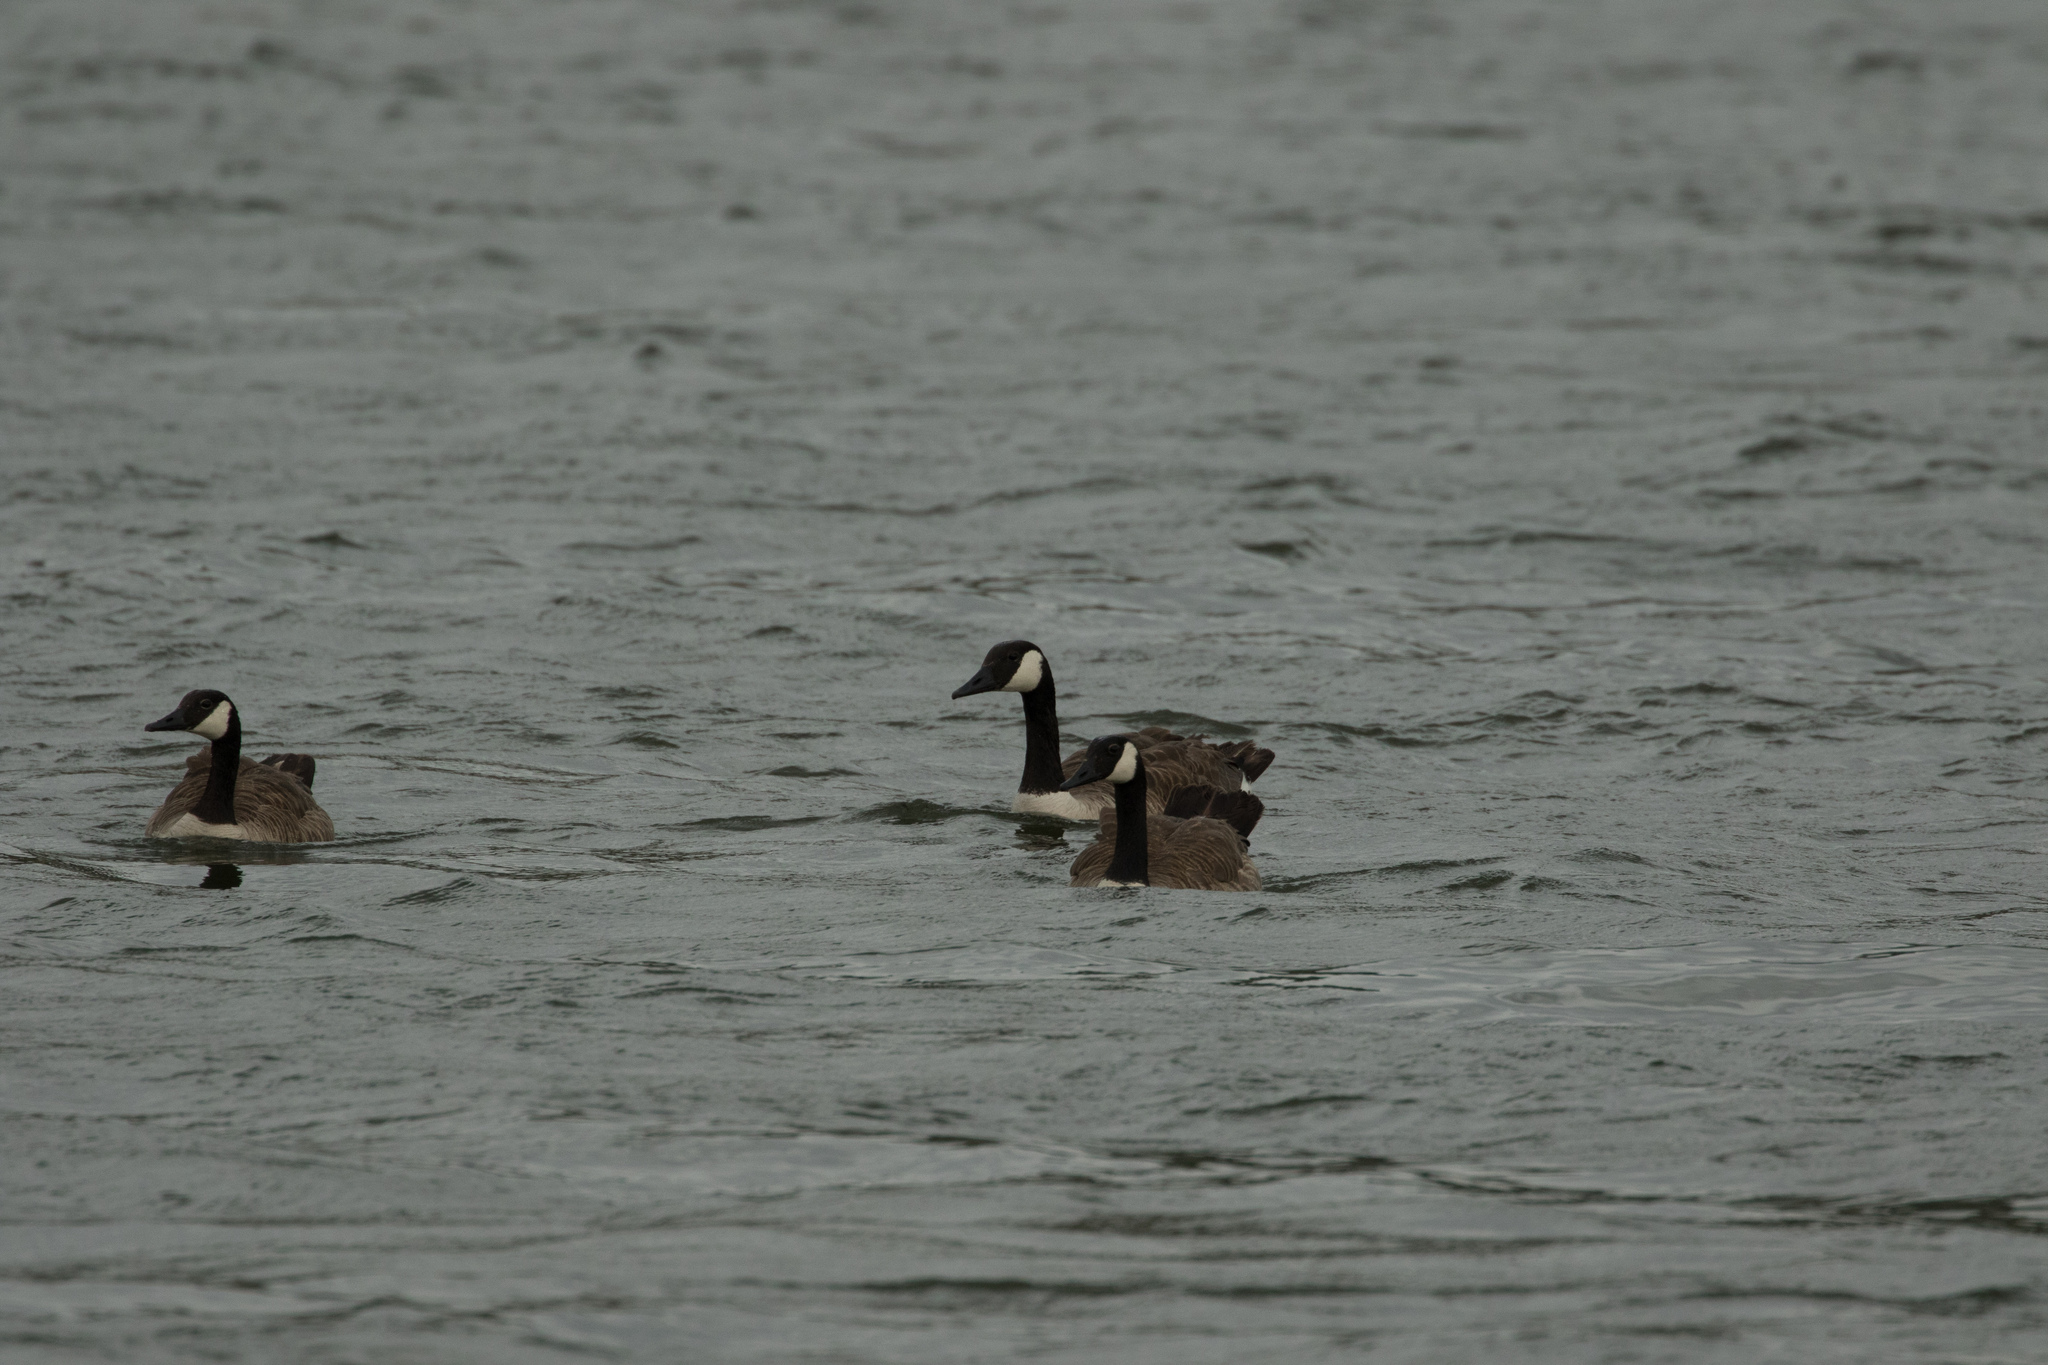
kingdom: Animalia
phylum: Chordata
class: Aves
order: Anseriformes
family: Anatidae
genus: Branta
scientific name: Branta canadensis
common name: Canada goose
